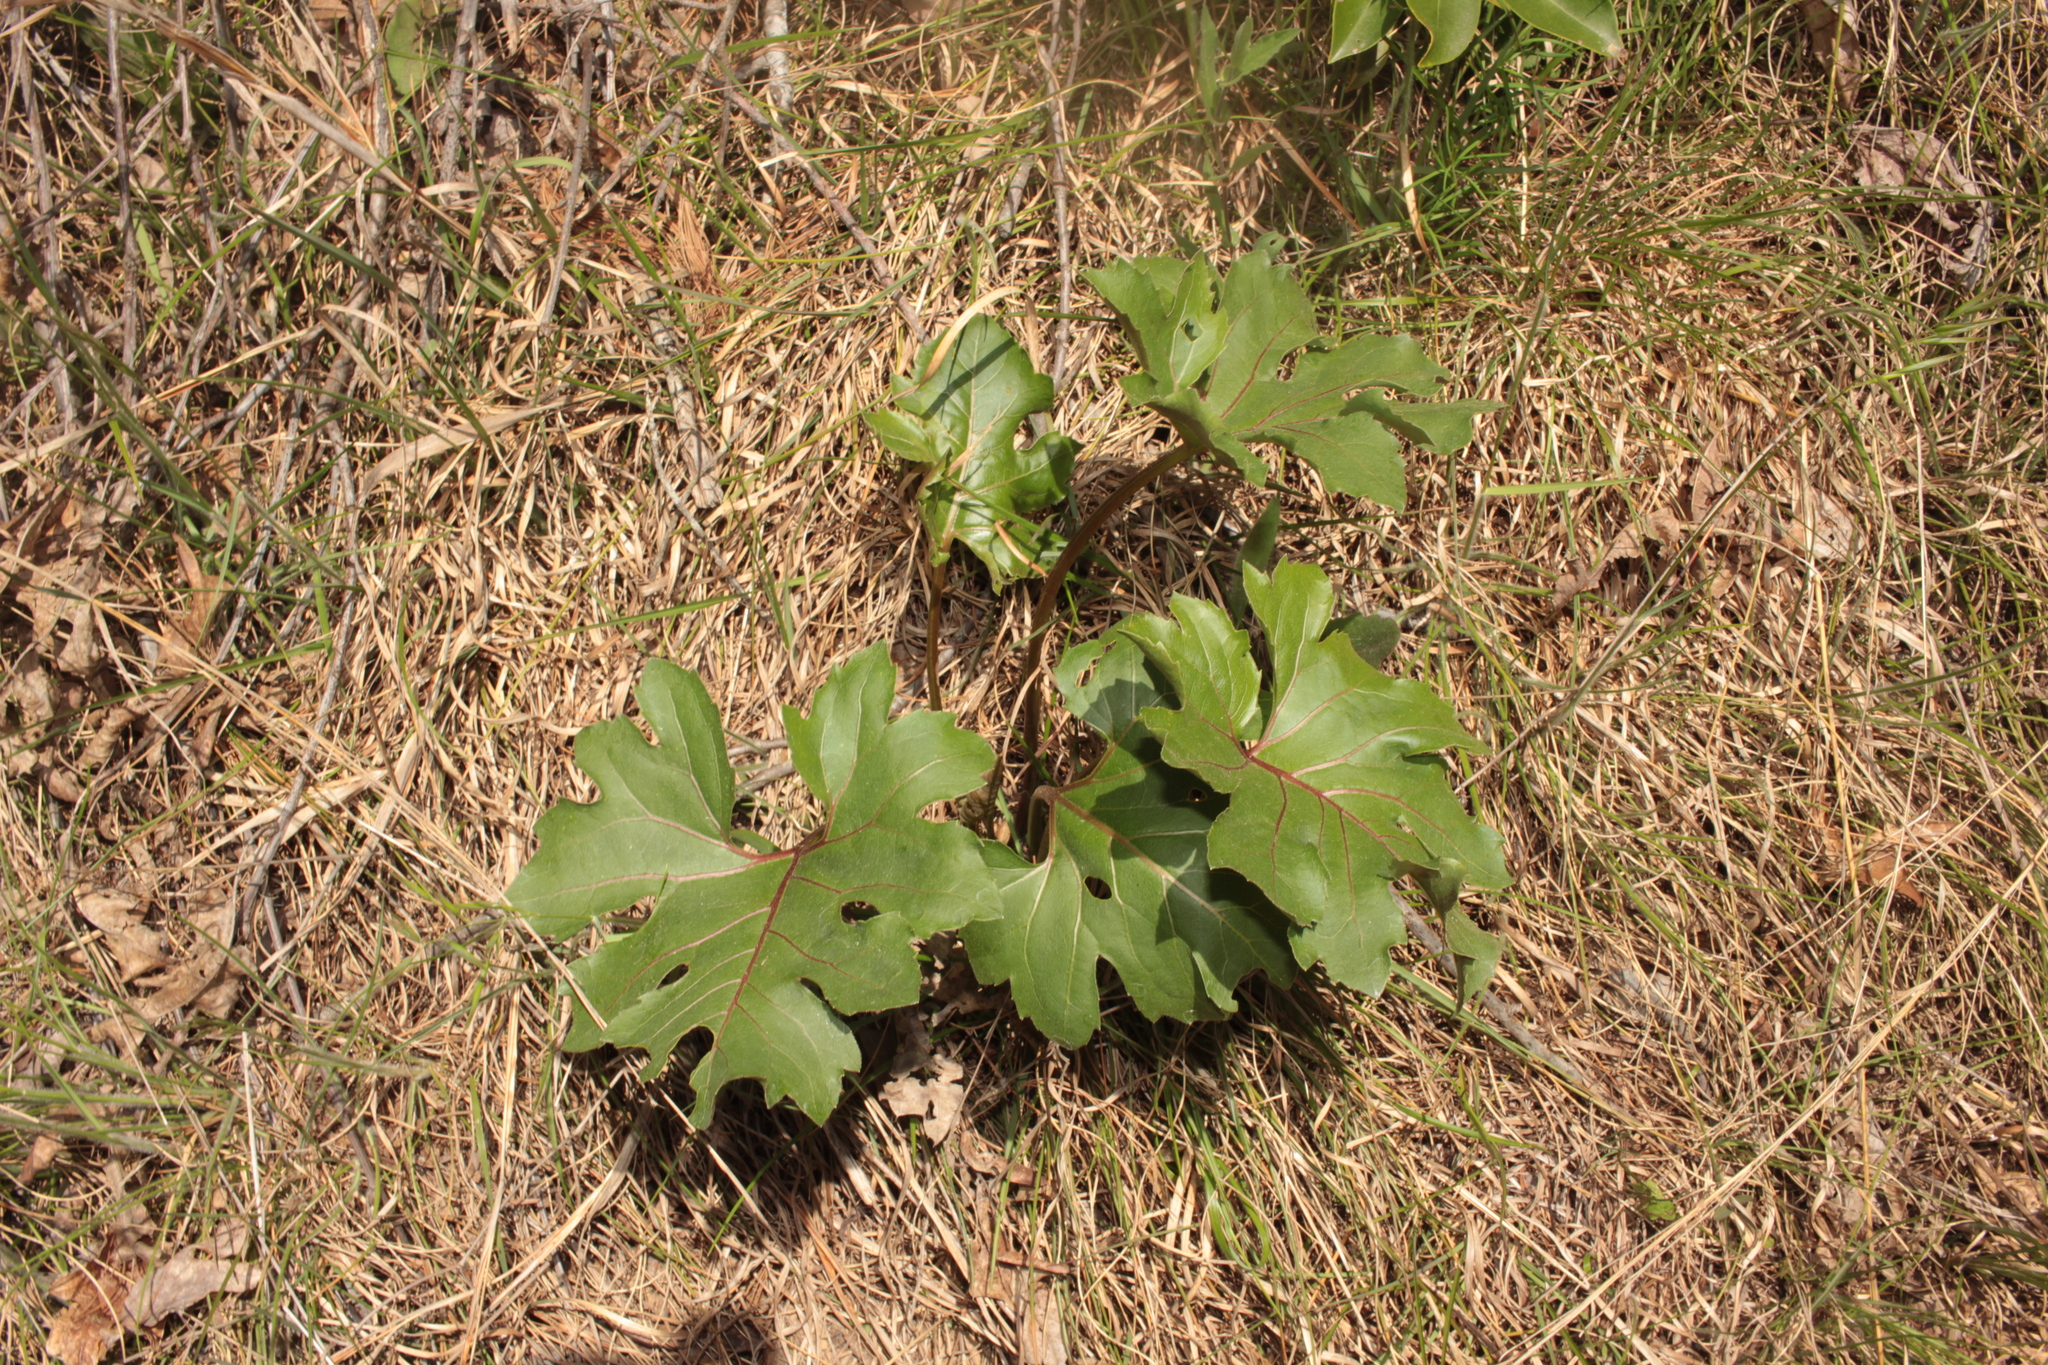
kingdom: Plantae
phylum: Tracheophyta
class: Magnoliopsida
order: Asterales
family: Asteraceae
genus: Silphium
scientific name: Silphium compositum
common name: Lesser basal-leaf rosinweed
